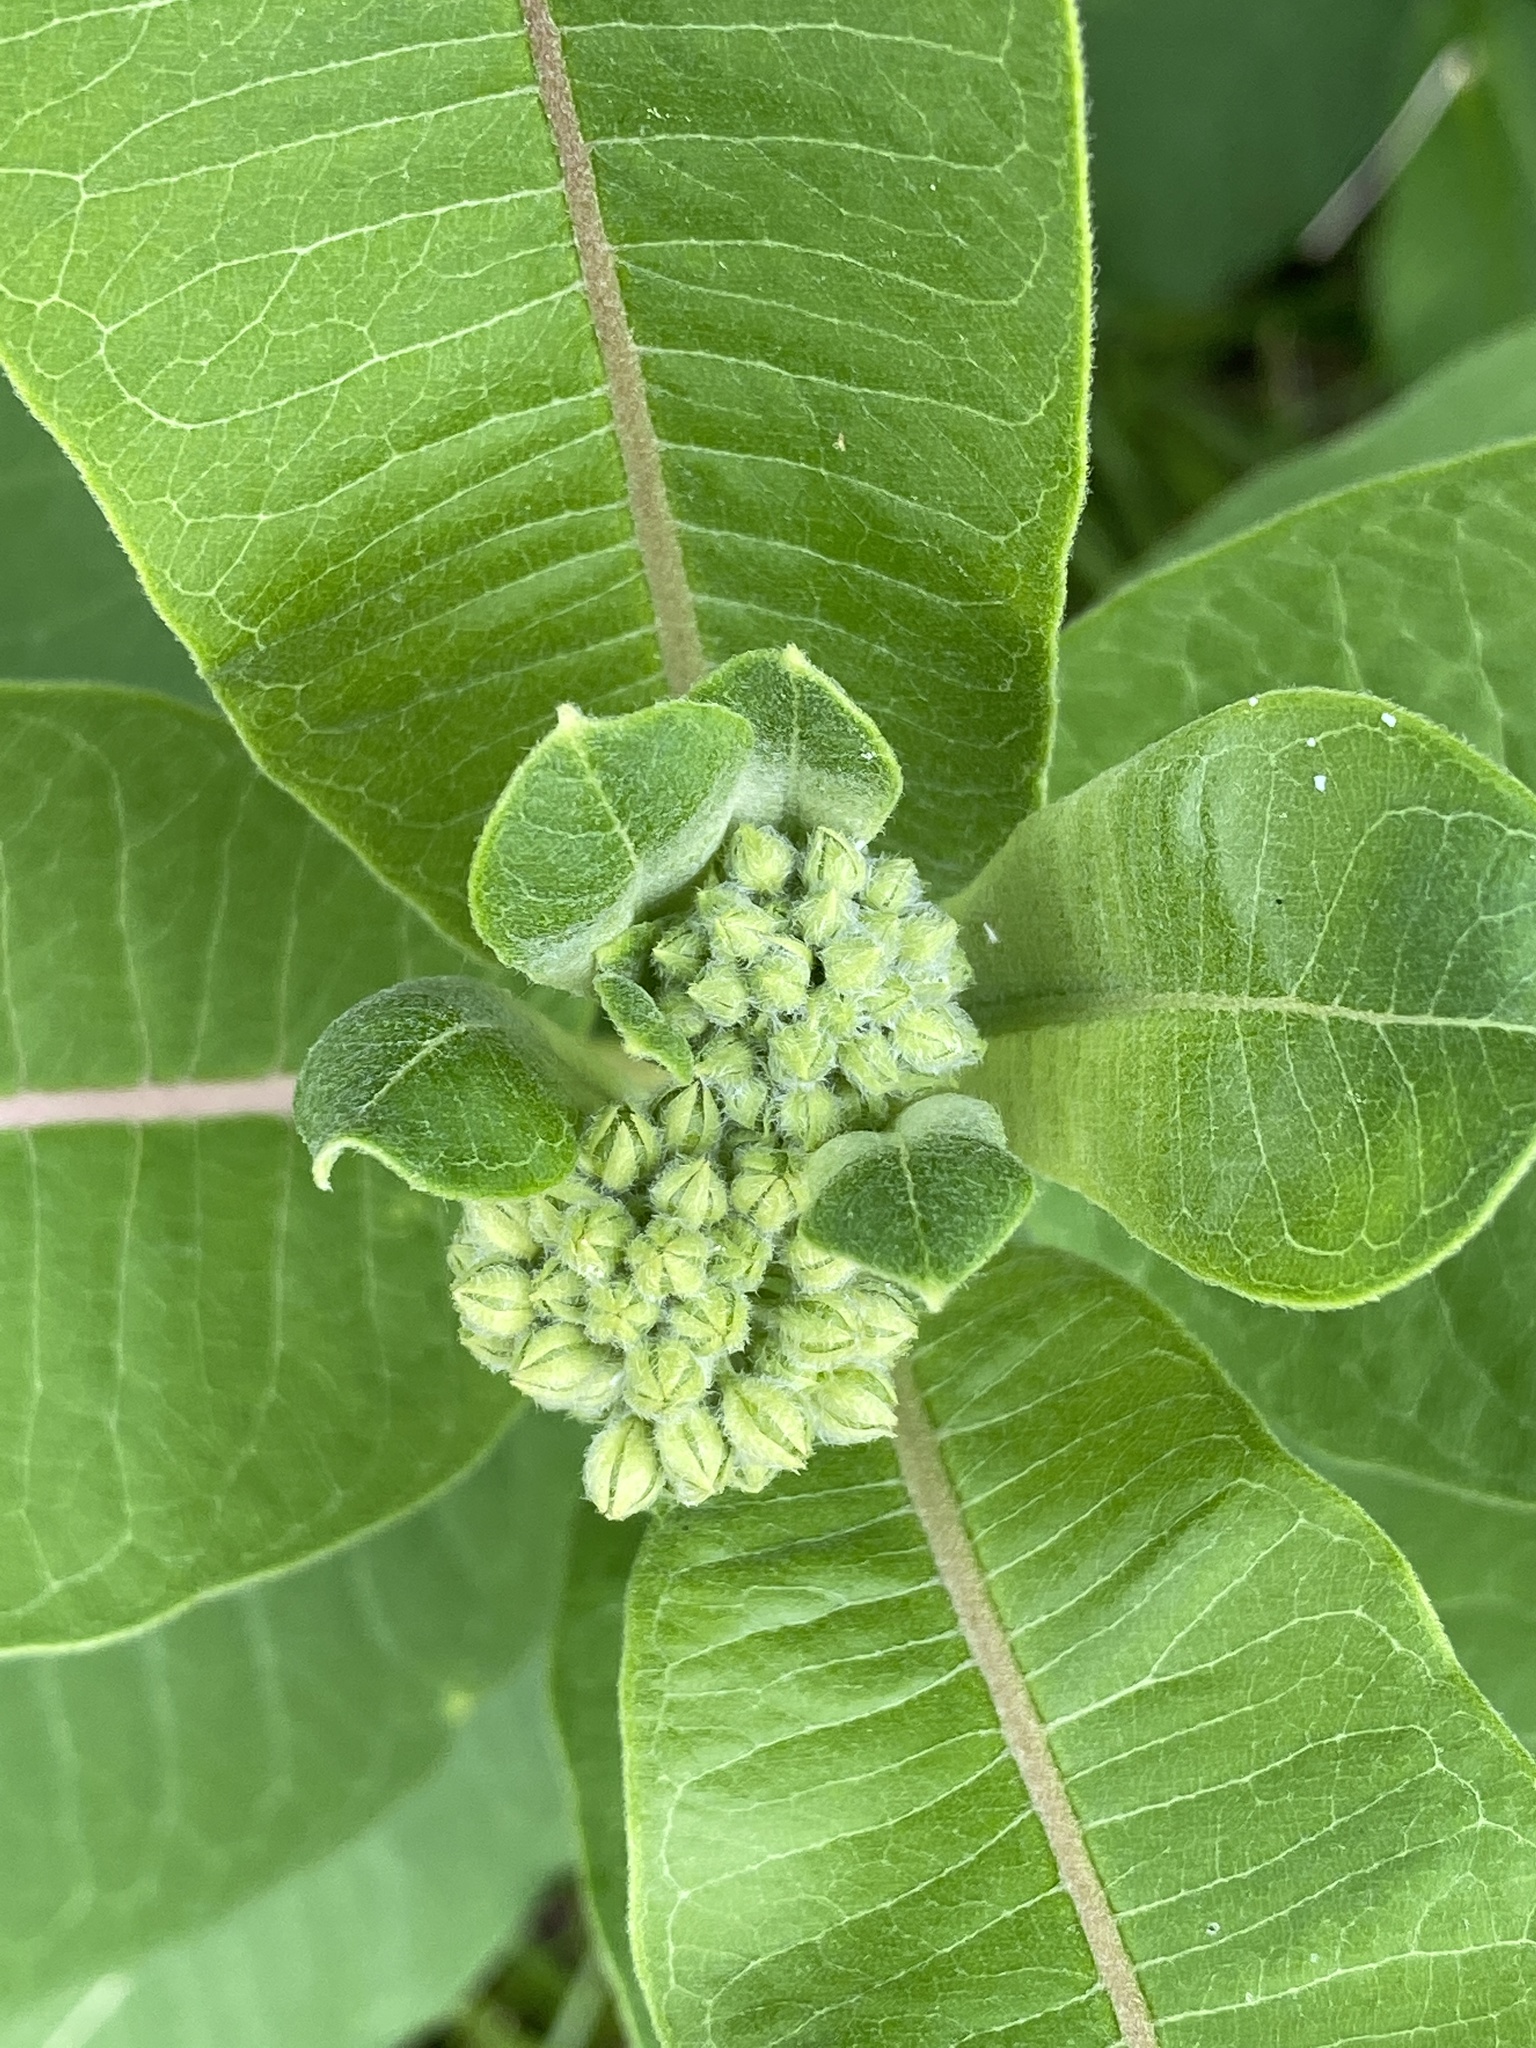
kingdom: Plantae
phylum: Tracheophyta
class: Magnoliopsida
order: Gentianales
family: Apocynaceae
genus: Asclepias
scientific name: Asclepias syriaca
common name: Common milkweed
